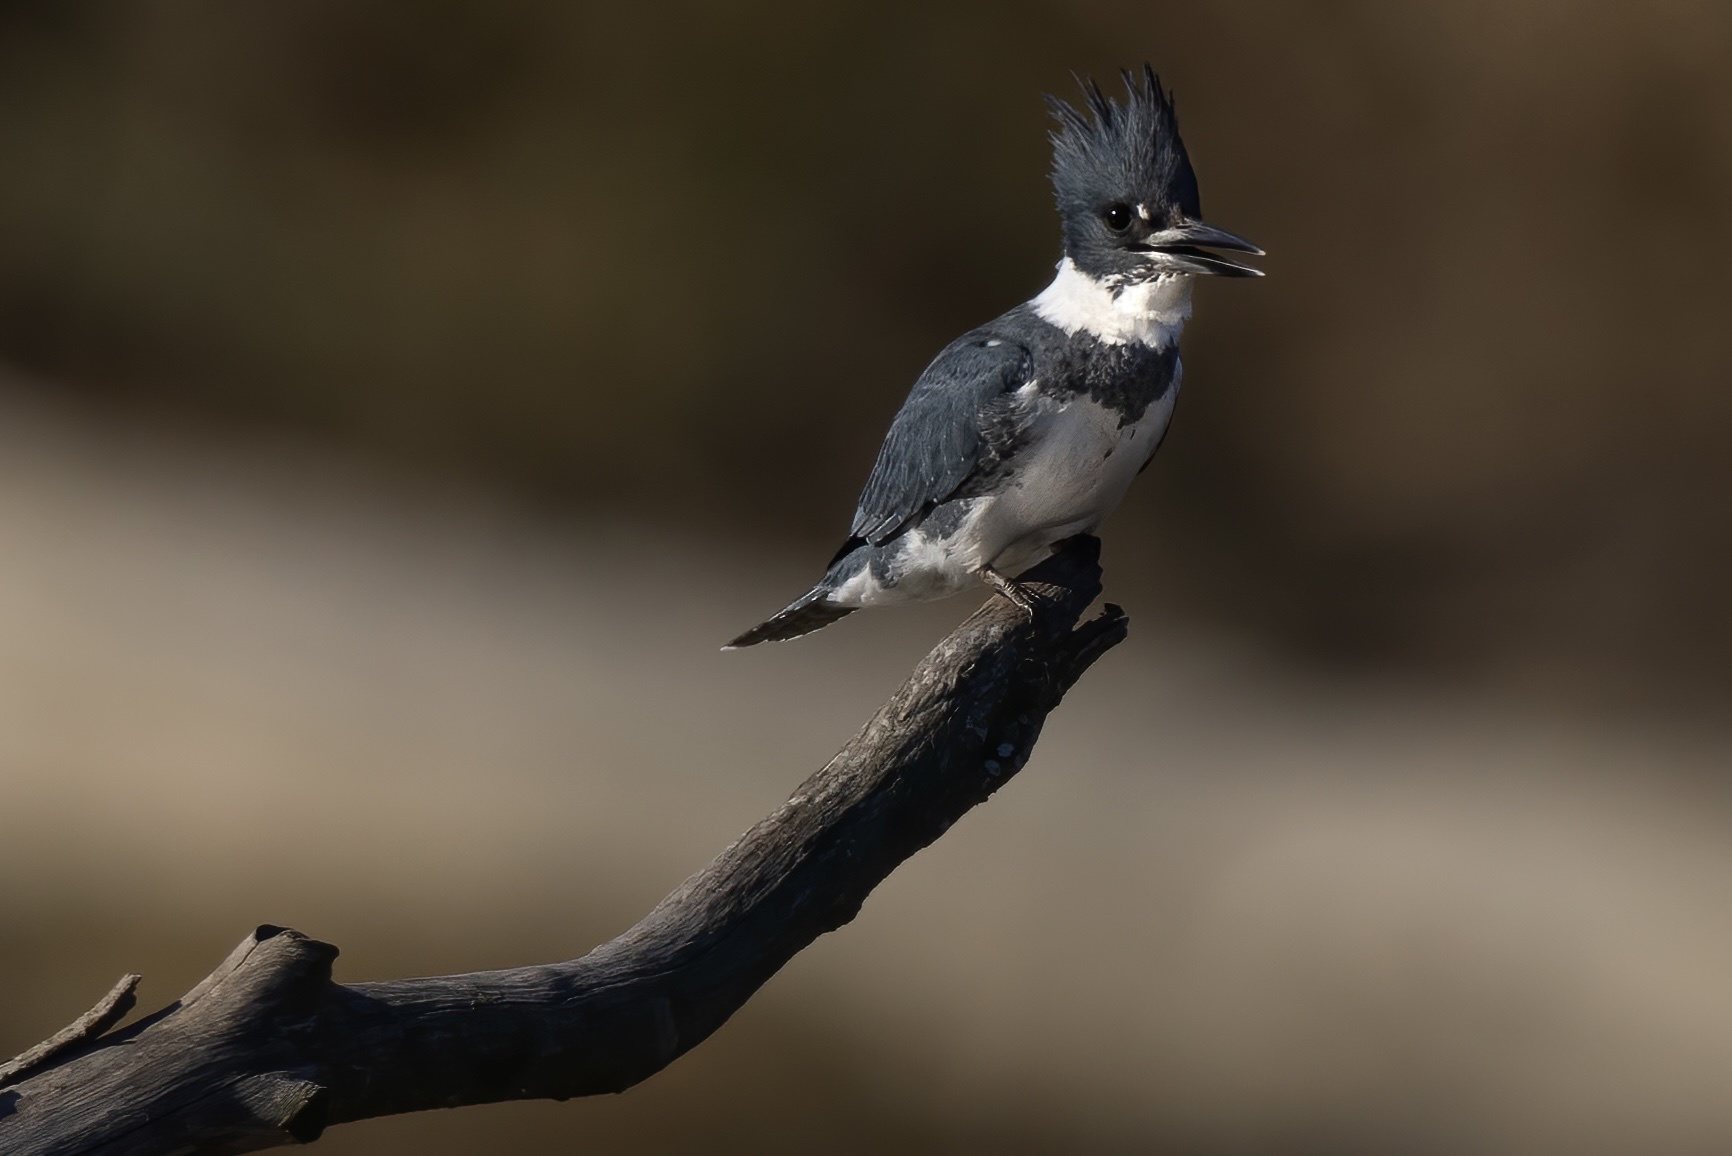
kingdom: Animalia
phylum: Chordata
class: Aves
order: Coraciiformes
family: Alcedinidae
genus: Megaceryle
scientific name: Megaceryle alcyon
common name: Belted kingfisher
